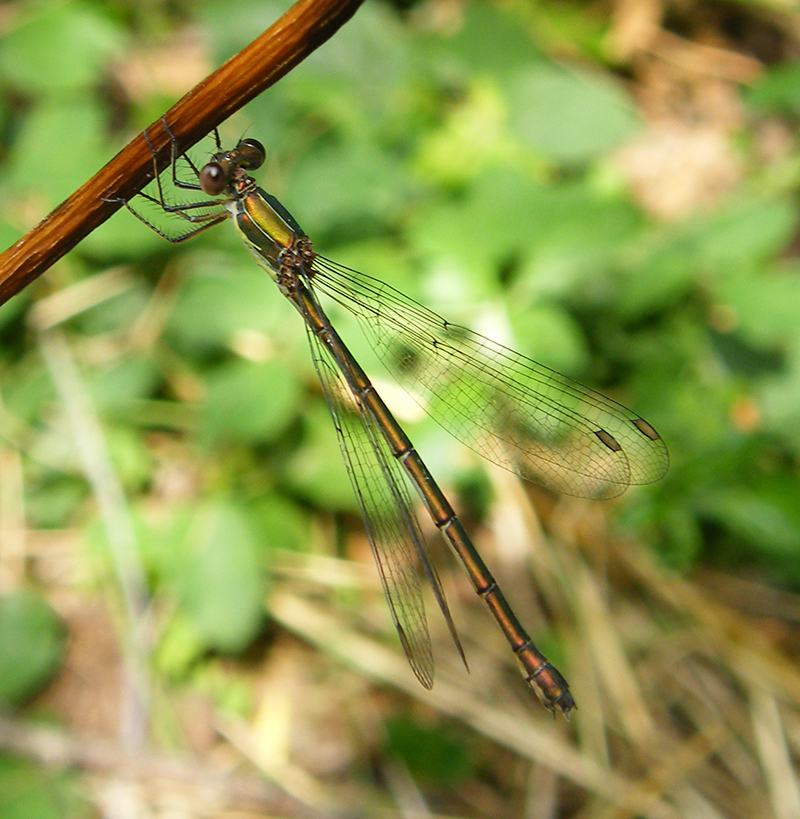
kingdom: Animalia
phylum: Arthropoda
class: Insecta
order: Odonata
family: Lestidae
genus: Chalcolestes
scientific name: Chalcolestes viridis
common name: Green emerald damselfly
